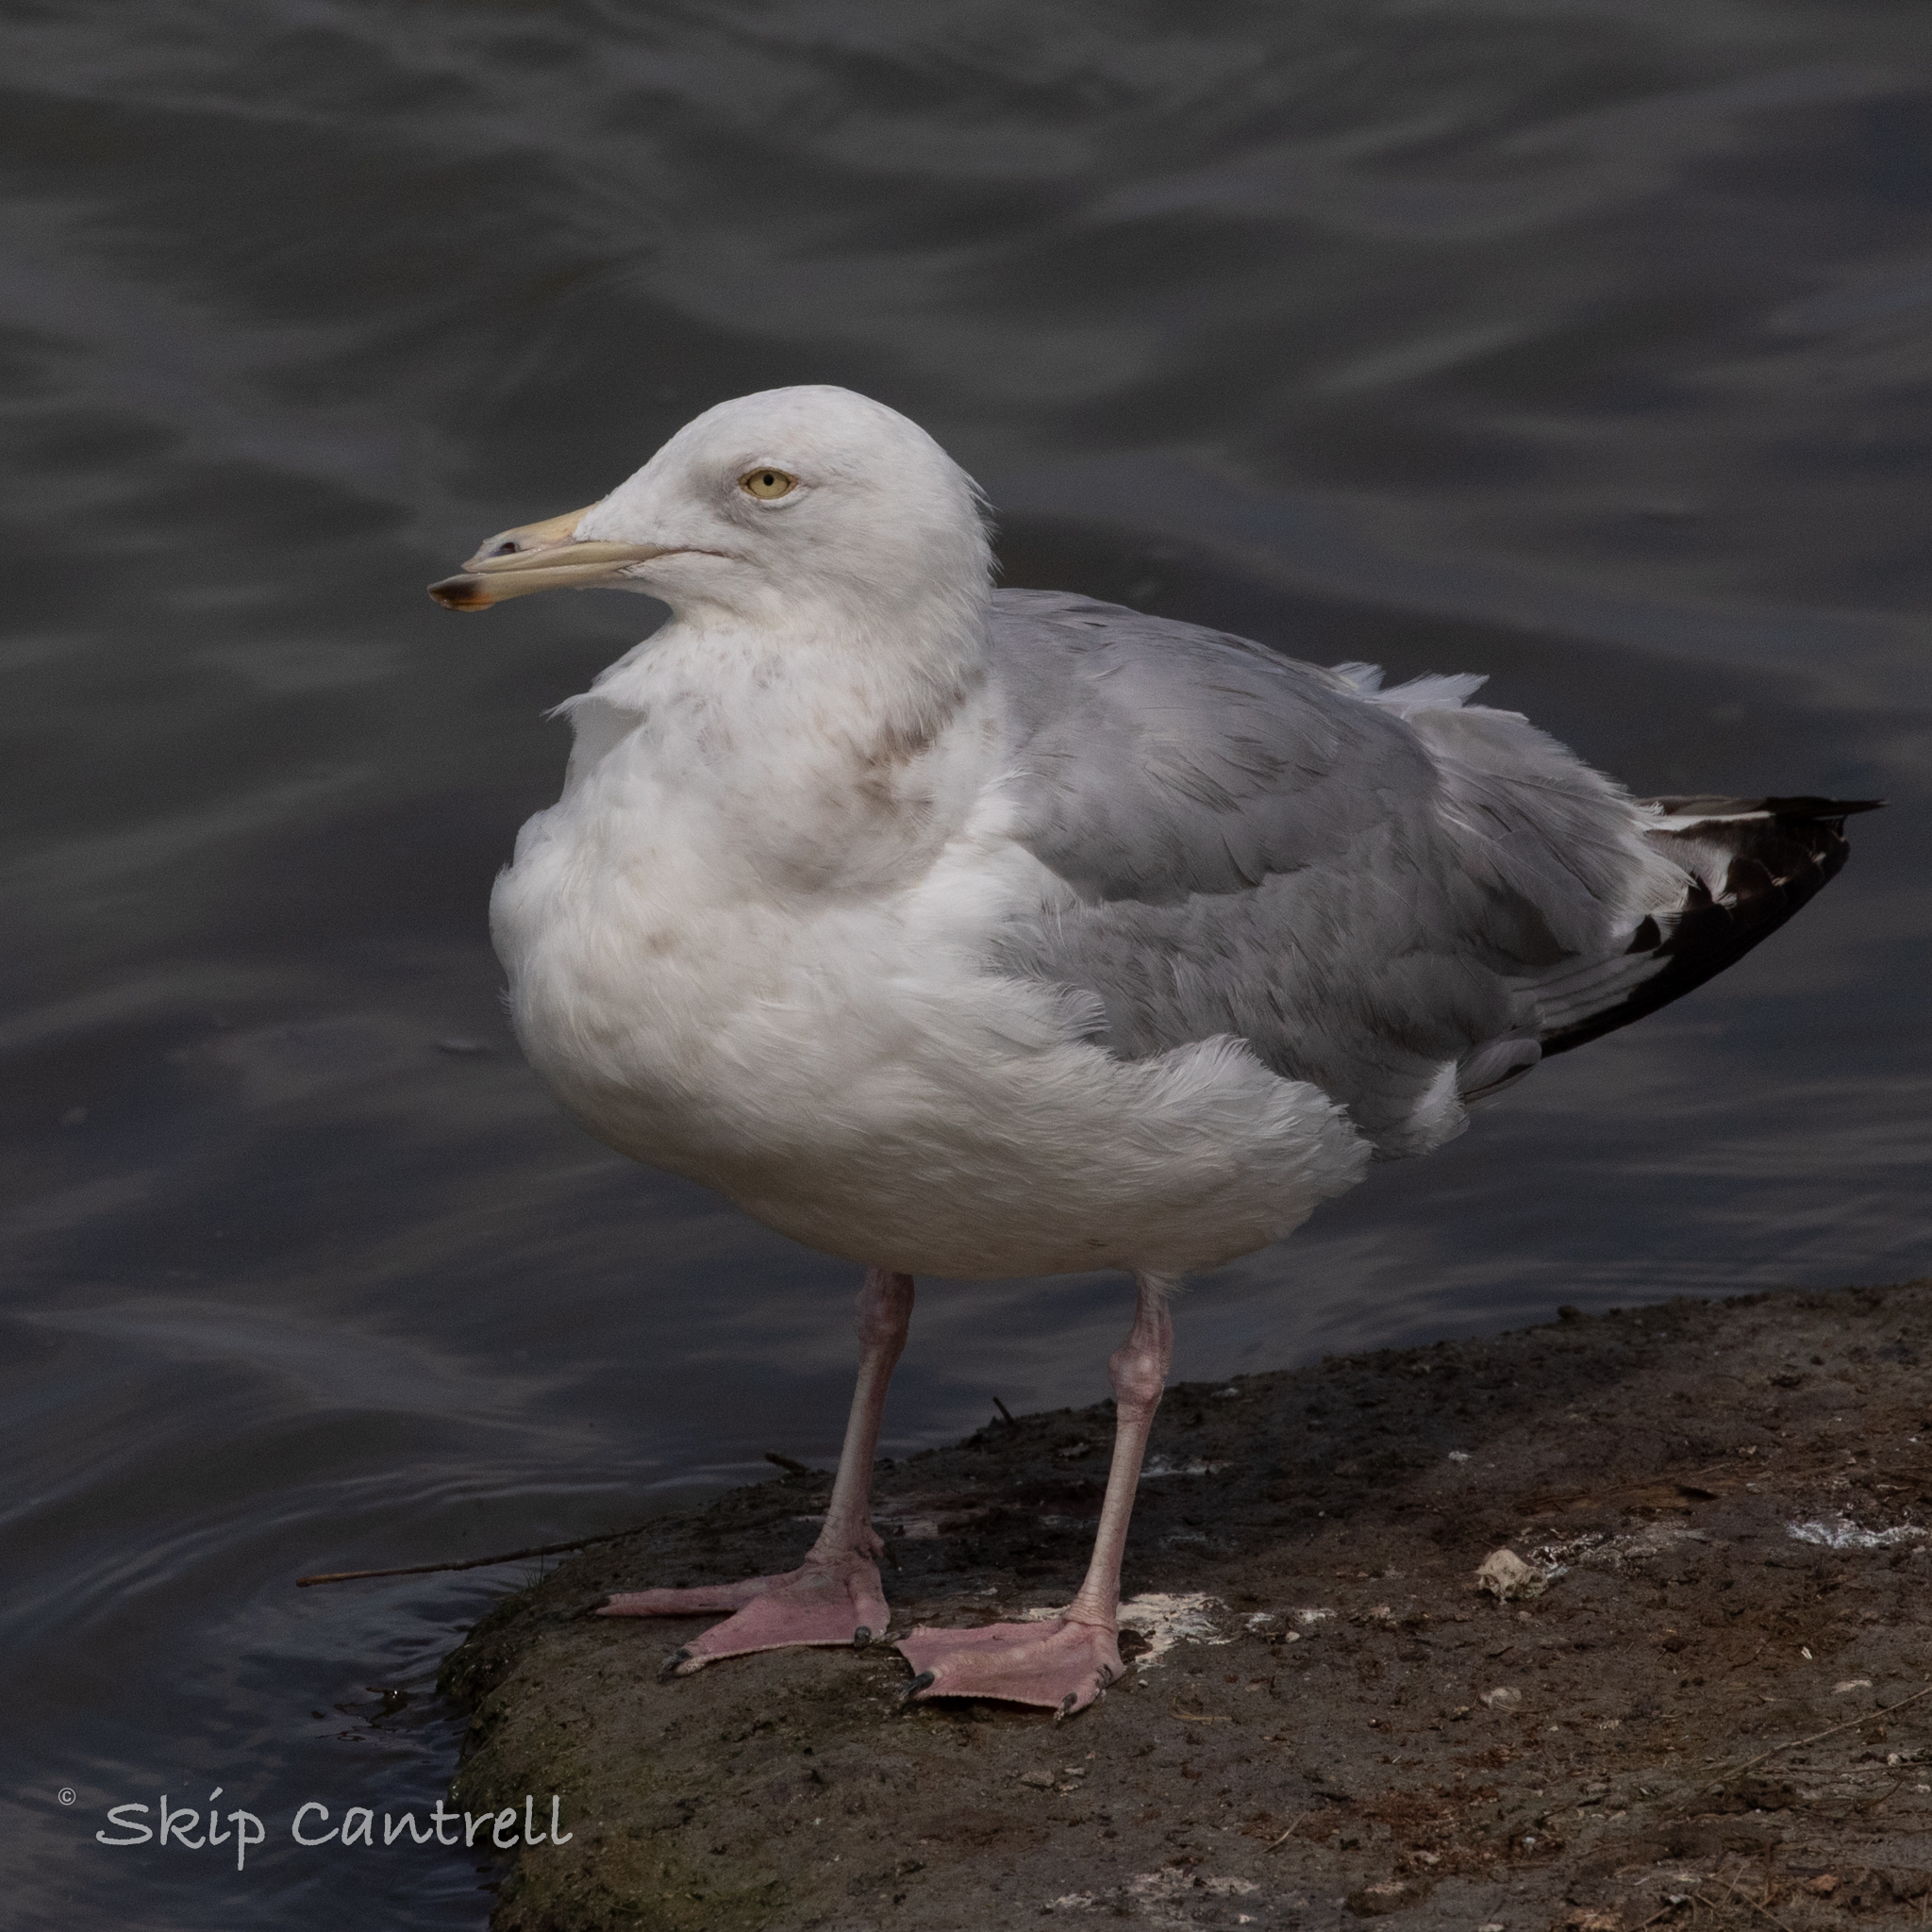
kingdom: Animalia
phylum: Chordata
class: Aves
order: Charadriiformes
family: Laridae
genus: Larus
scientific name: Larus argentatus
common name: Herring gull
